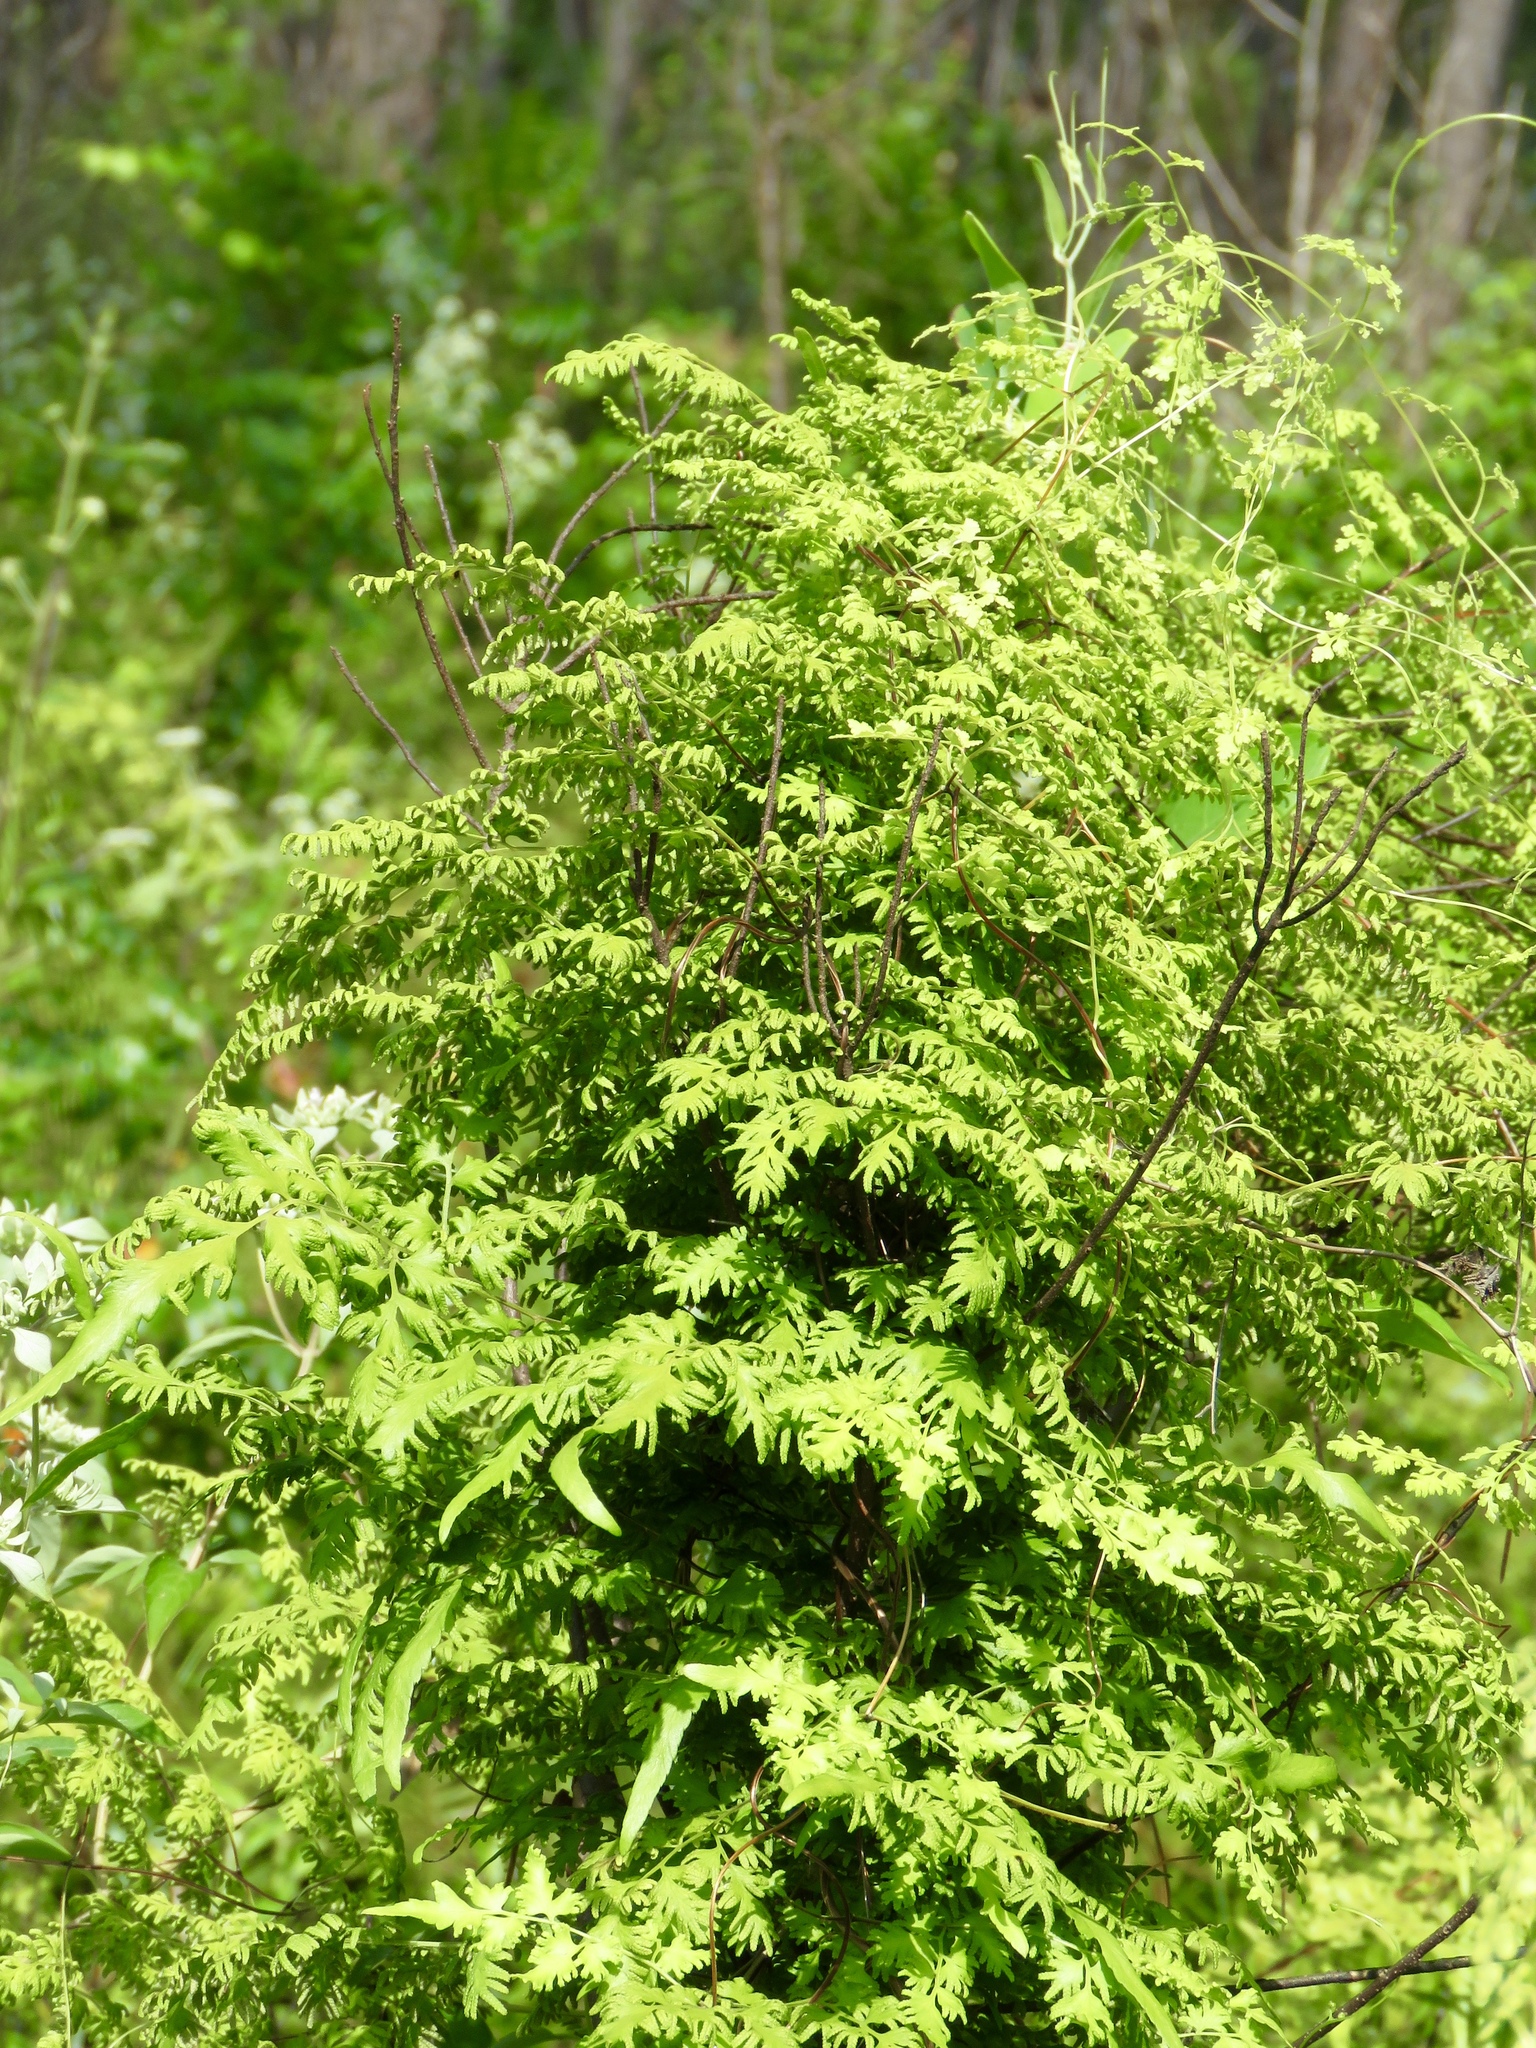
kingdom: Plantae
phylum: Tracheophyta
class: Polypodiopsida
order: Schizaeales
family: Lygodiaceae
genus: Lygodium
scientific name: Lygodium japonicum
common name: Japanese climbing fern
